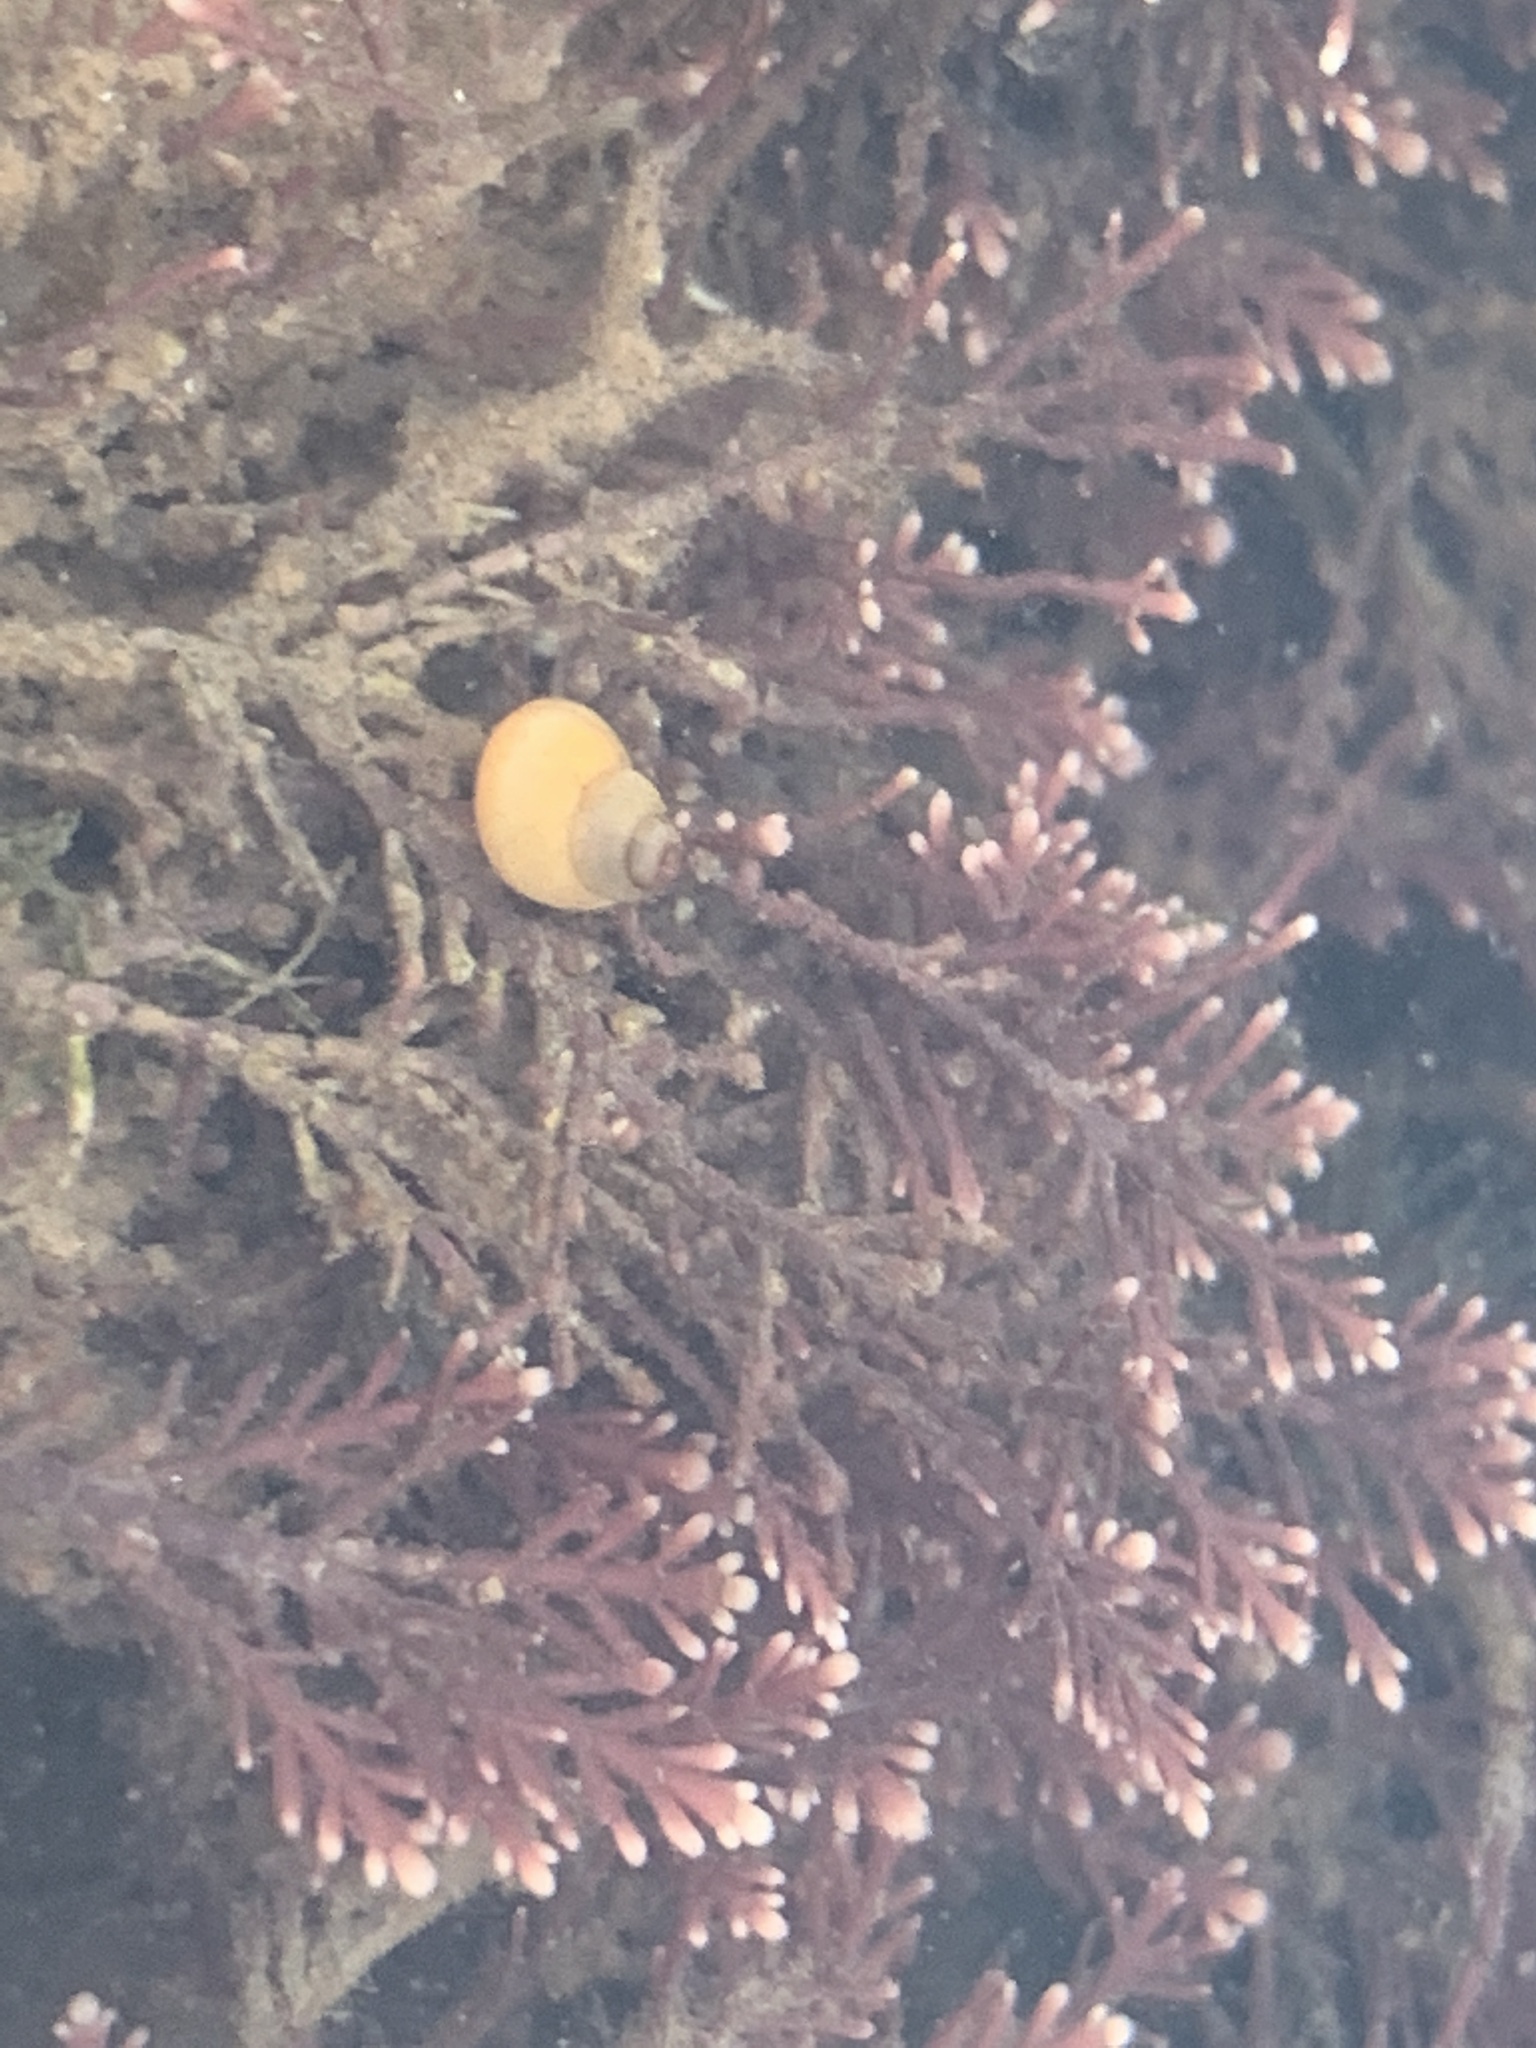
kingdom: Animalia
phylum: Mollusca
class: Gastropoda
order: Littorinimorpha
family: Littorinidae
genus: Lacuna
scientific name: Lacuna vincta
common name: Banded chink shell
